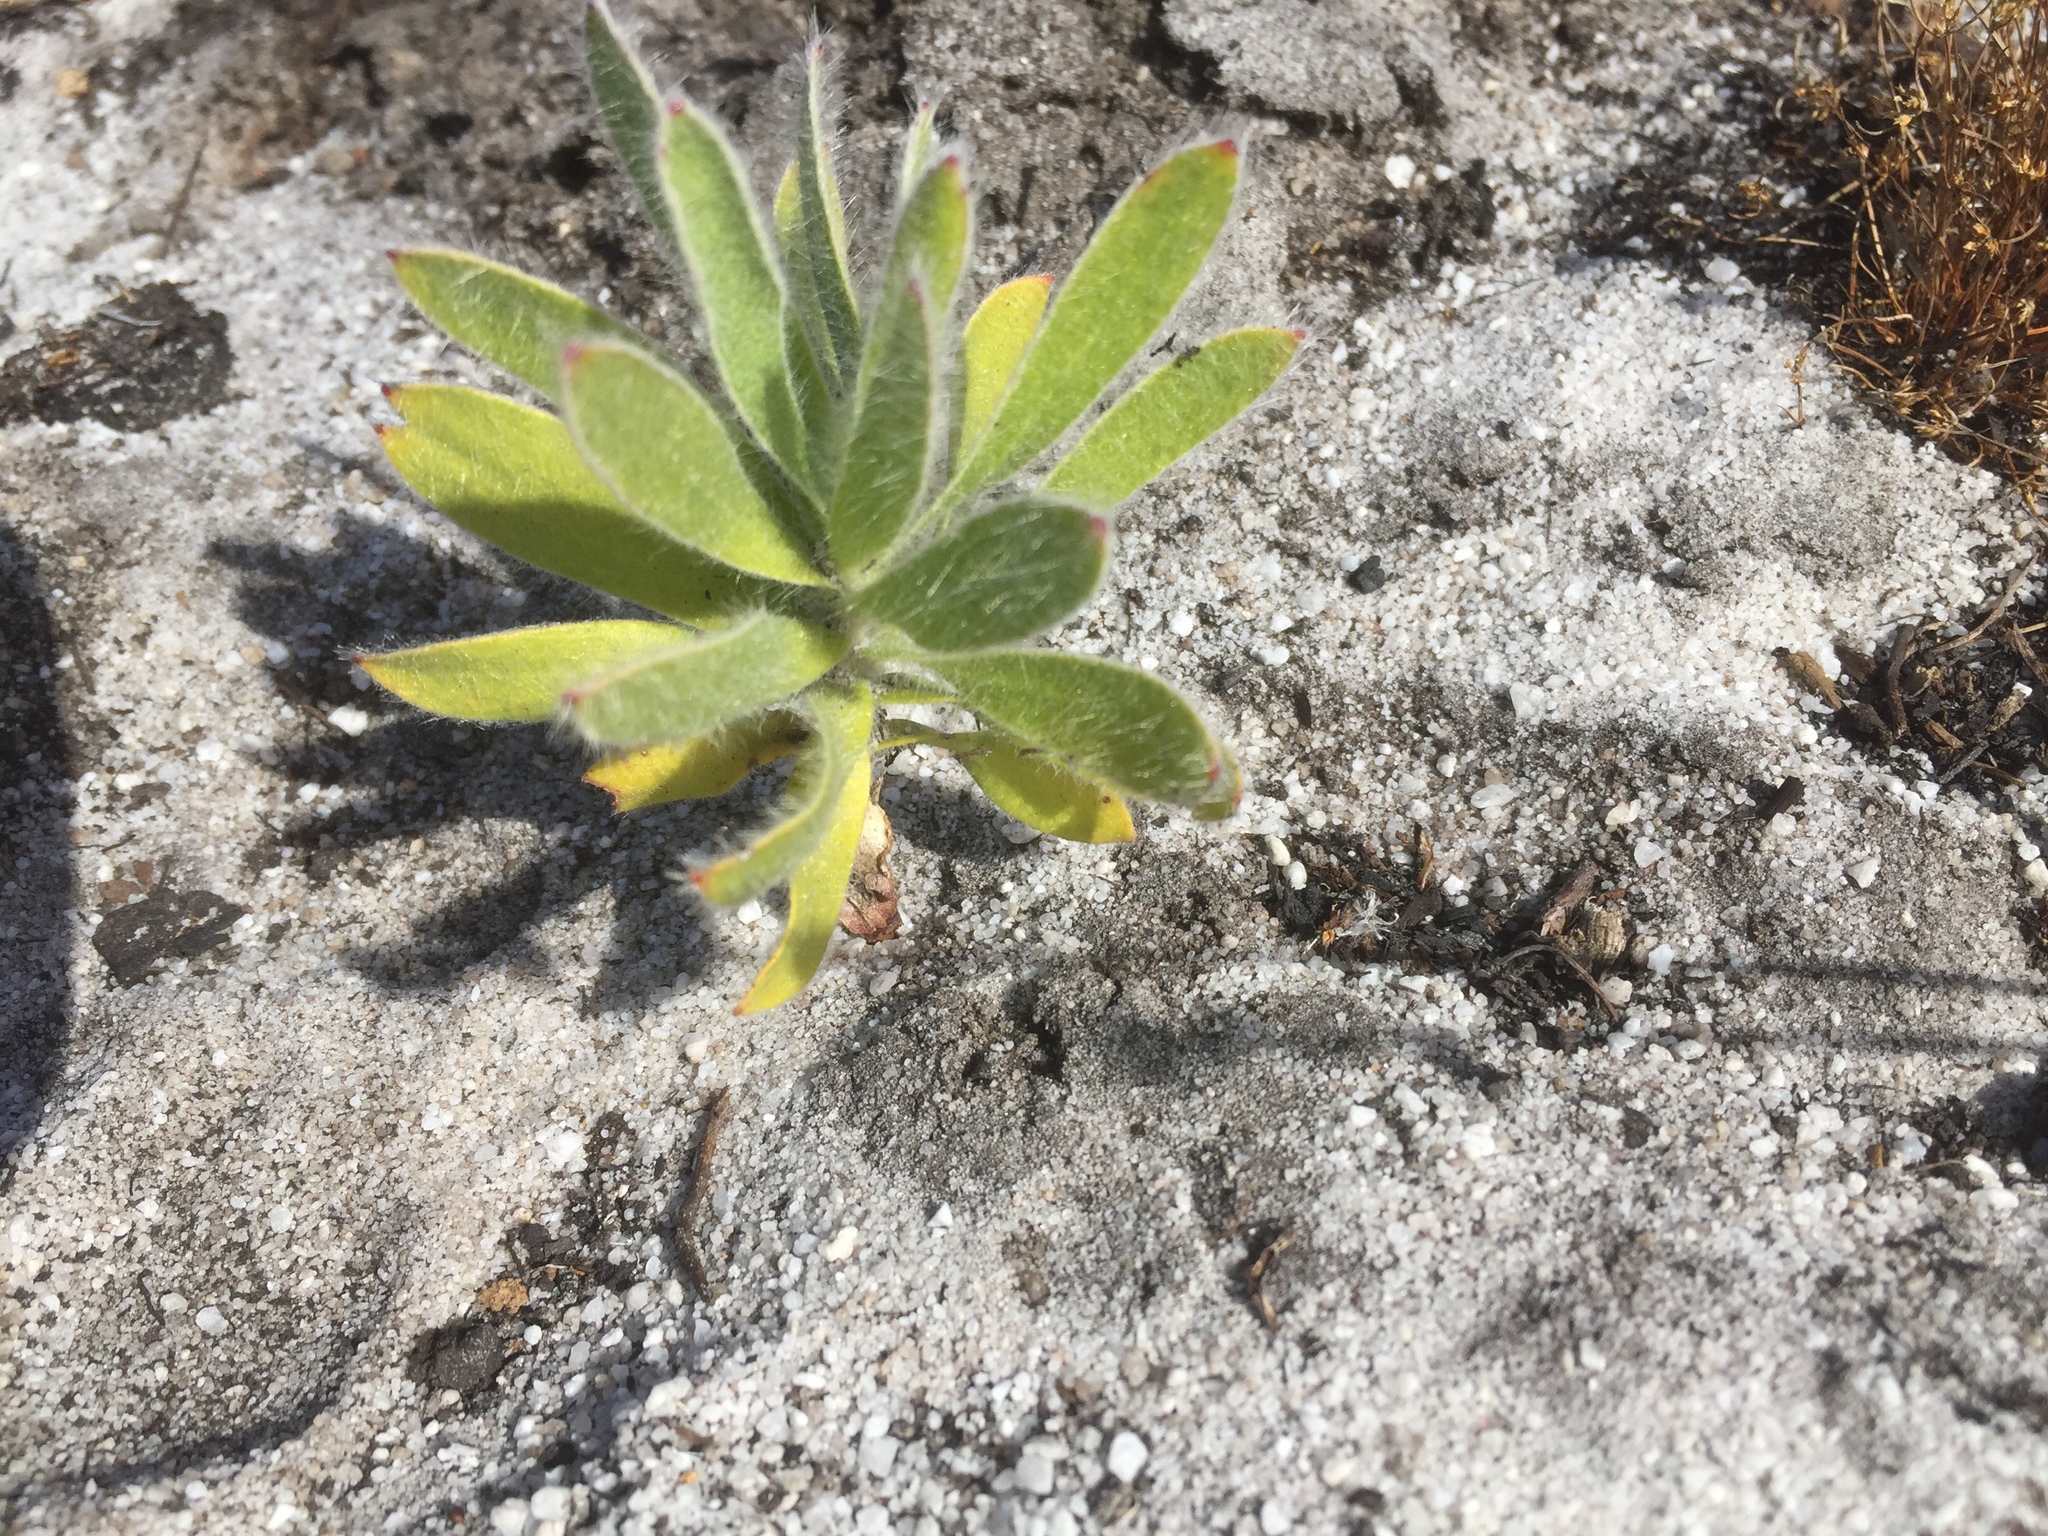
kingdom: Plantae
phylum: Tracheophyta
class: Magnoliopsida
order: Proteales
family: Proteaceae
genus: Leucospermum
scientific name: Leucospermum conocarpodendron
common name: Tree pincushion
